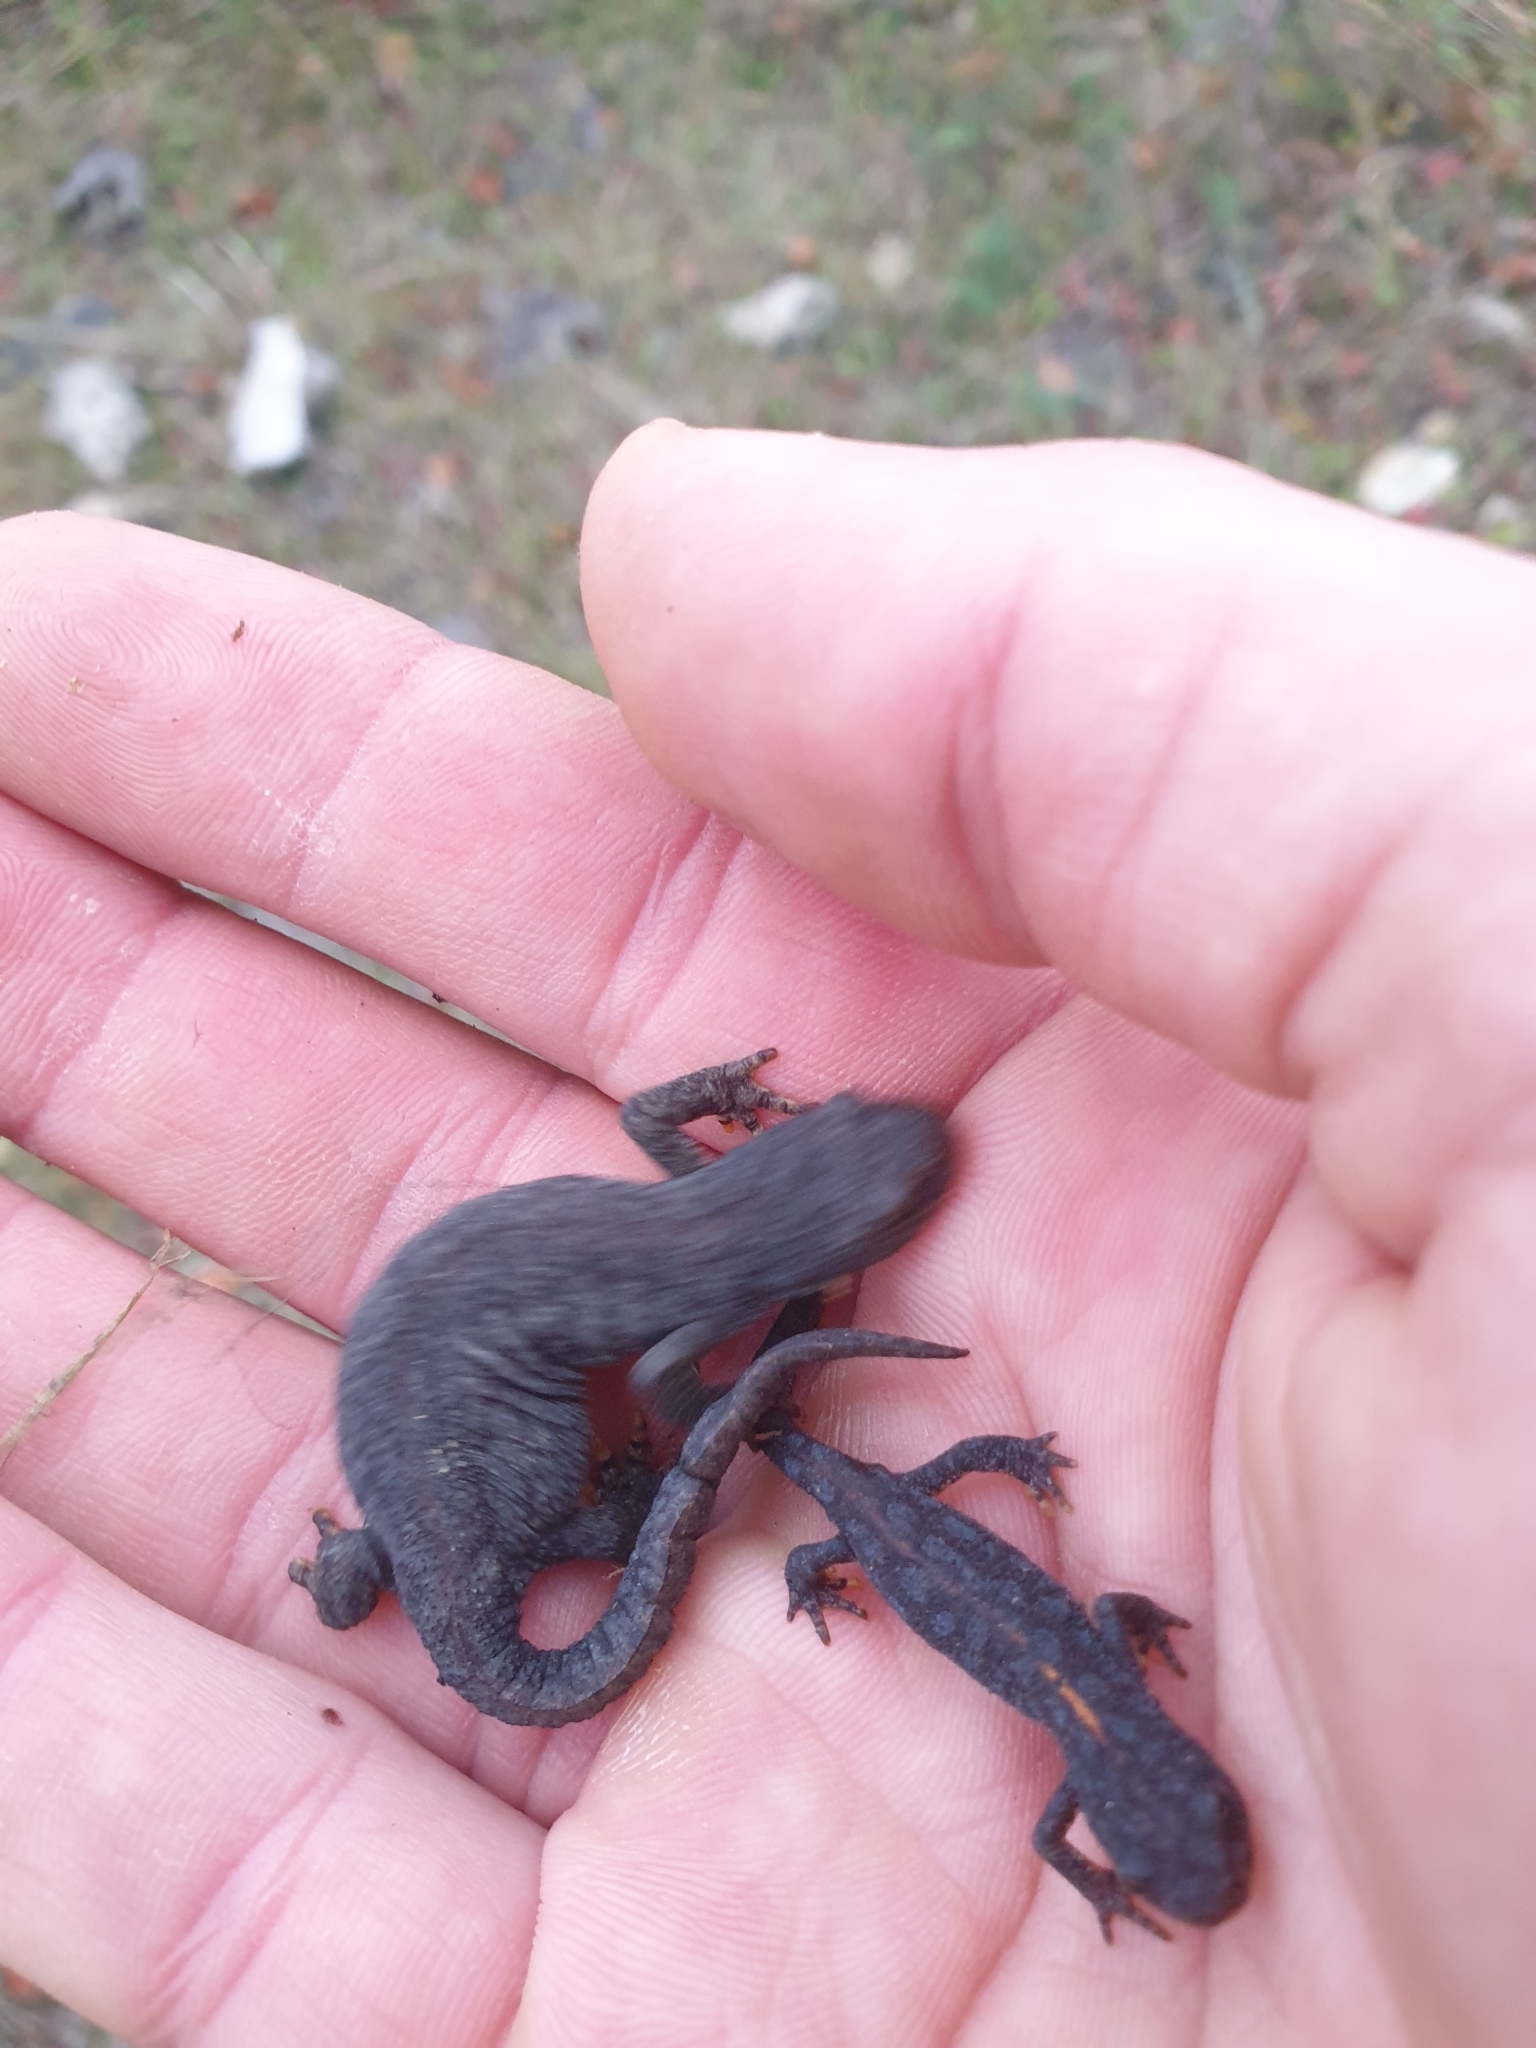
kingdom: Animalia
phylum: Chordata
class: Amphibia
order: Caudata
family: Salamandridae
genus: Ichthyosaura
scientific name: Ichthyosaura alpestris
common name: Alpine newt
